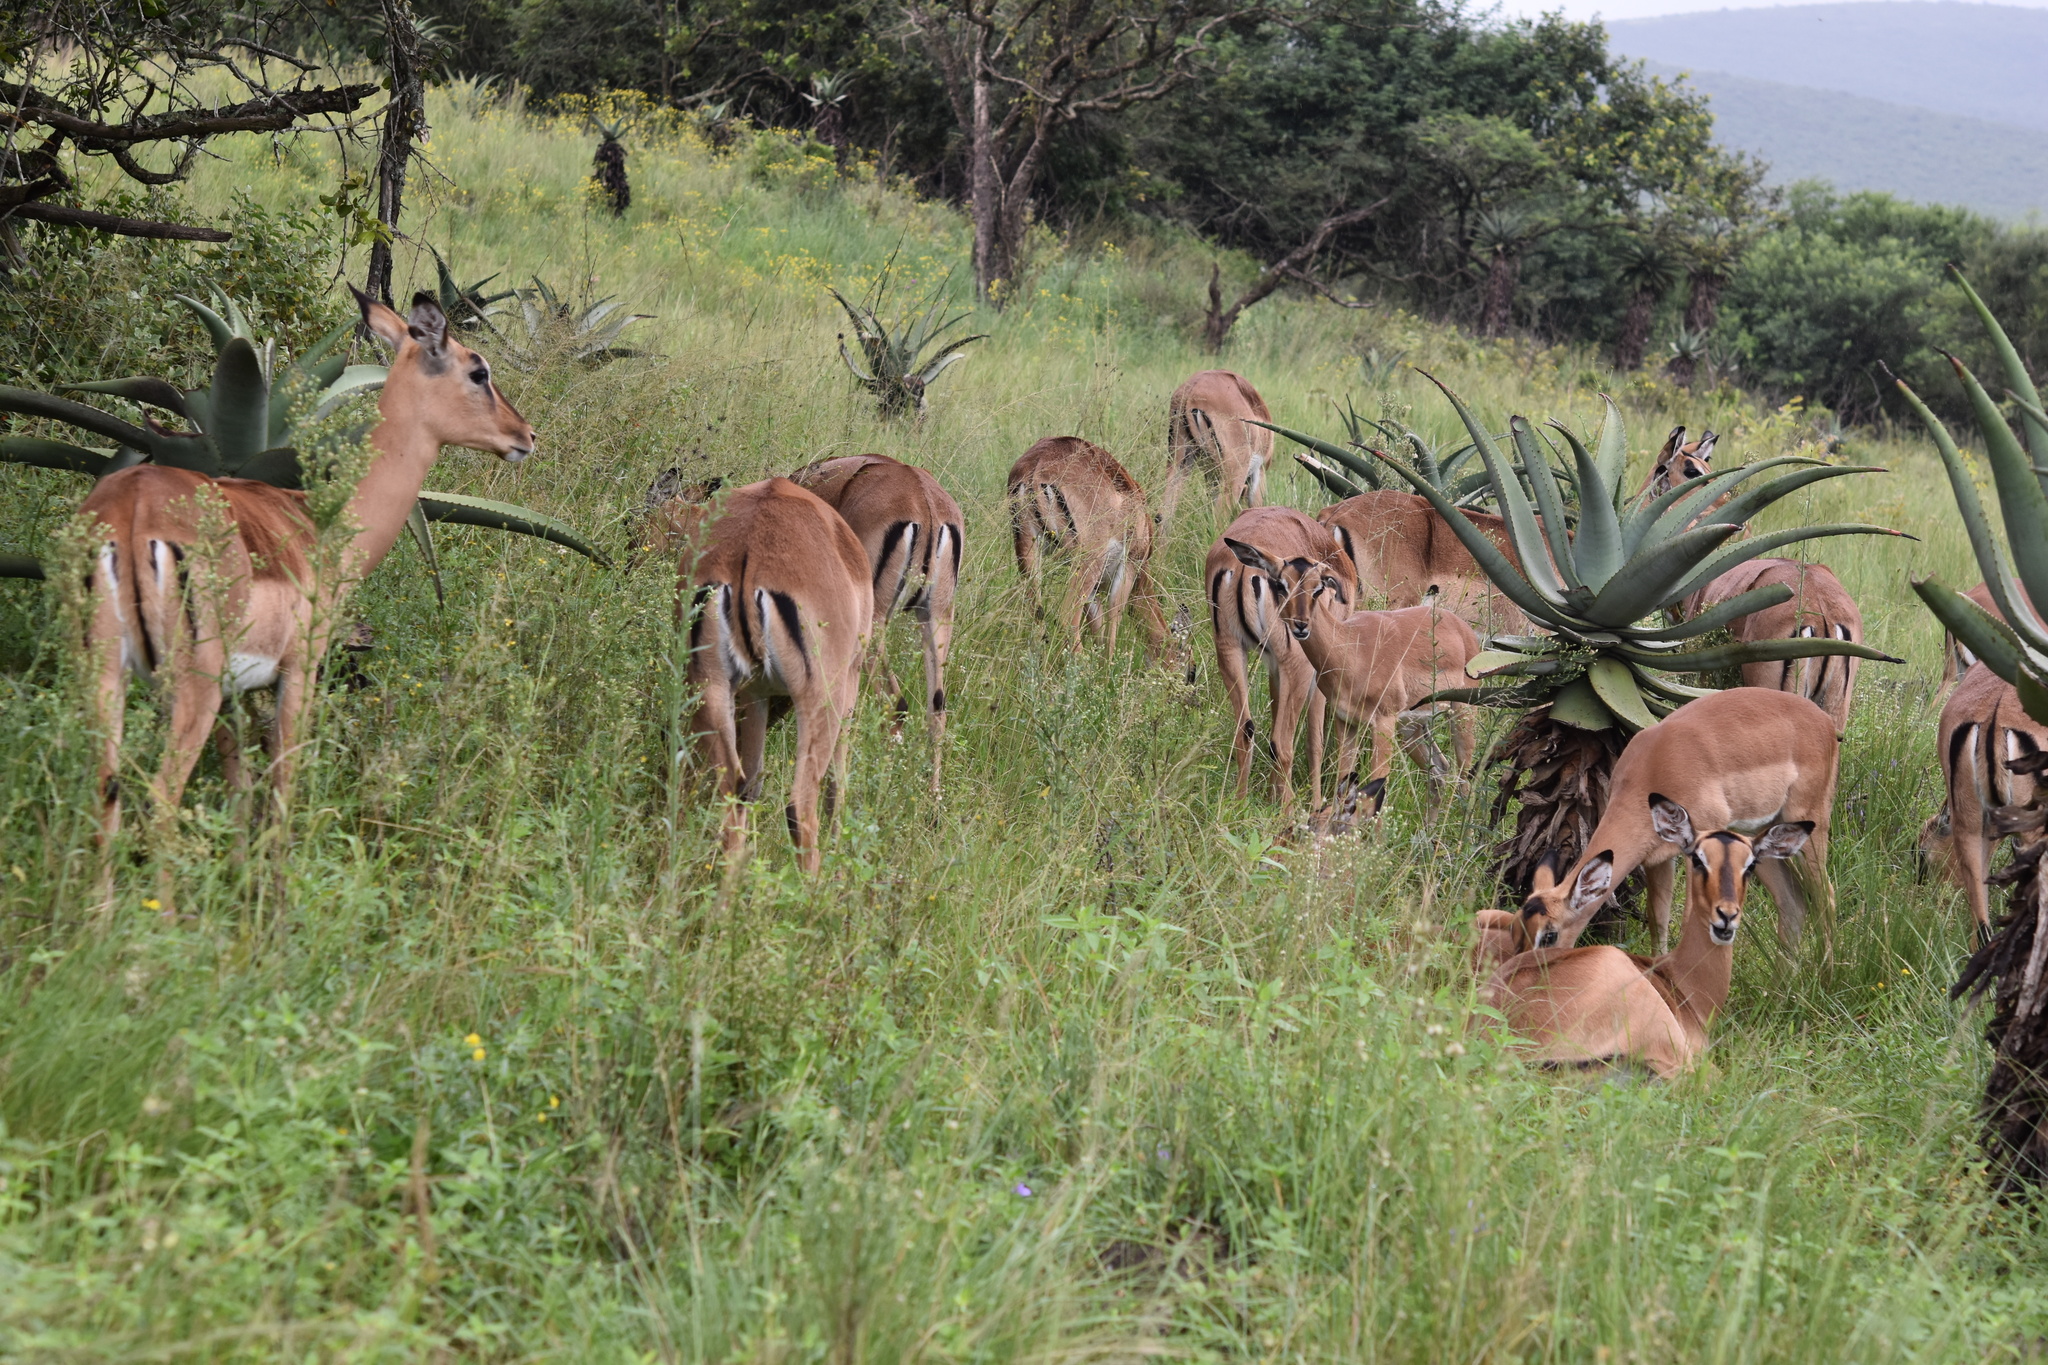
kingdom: Animalia
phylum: Chordata
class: Mammalia
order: Artiodactyla
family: Bovidae
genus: Aepyceros
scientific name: Aepyceros melampus
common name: Impala
